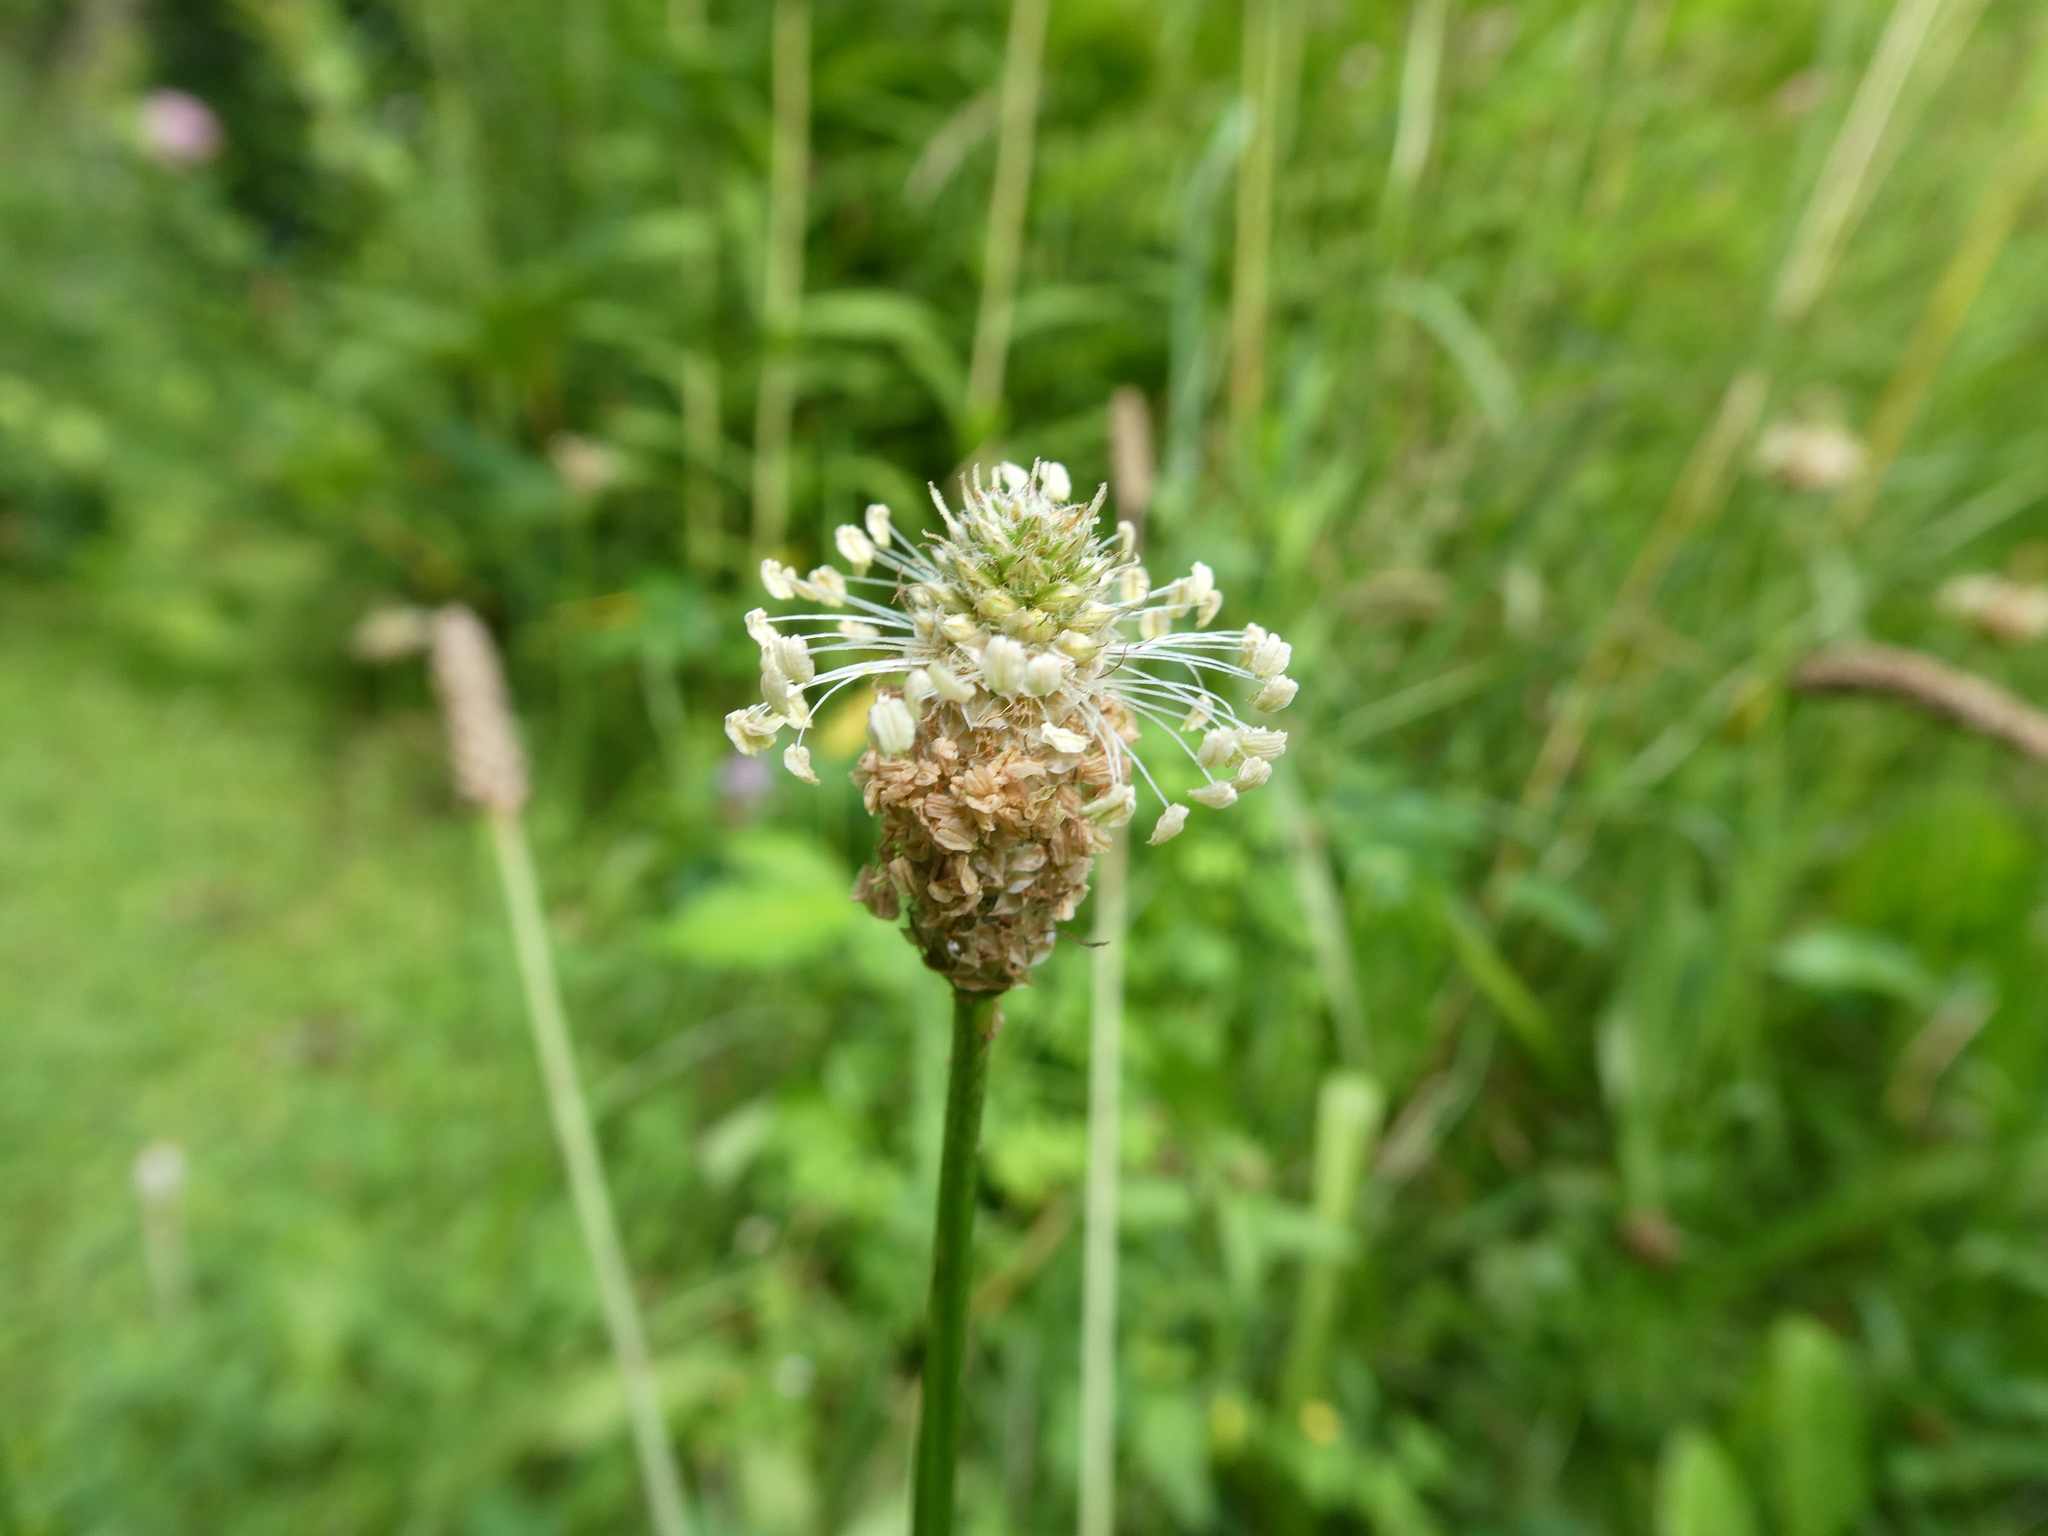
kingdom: Plantae
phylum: Tracheophyta
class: Magnoliopsida
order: Lamiales
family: Plantaginaceae
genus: Plantago
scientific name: Plantago lanceolata
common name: Ribwort plantain
